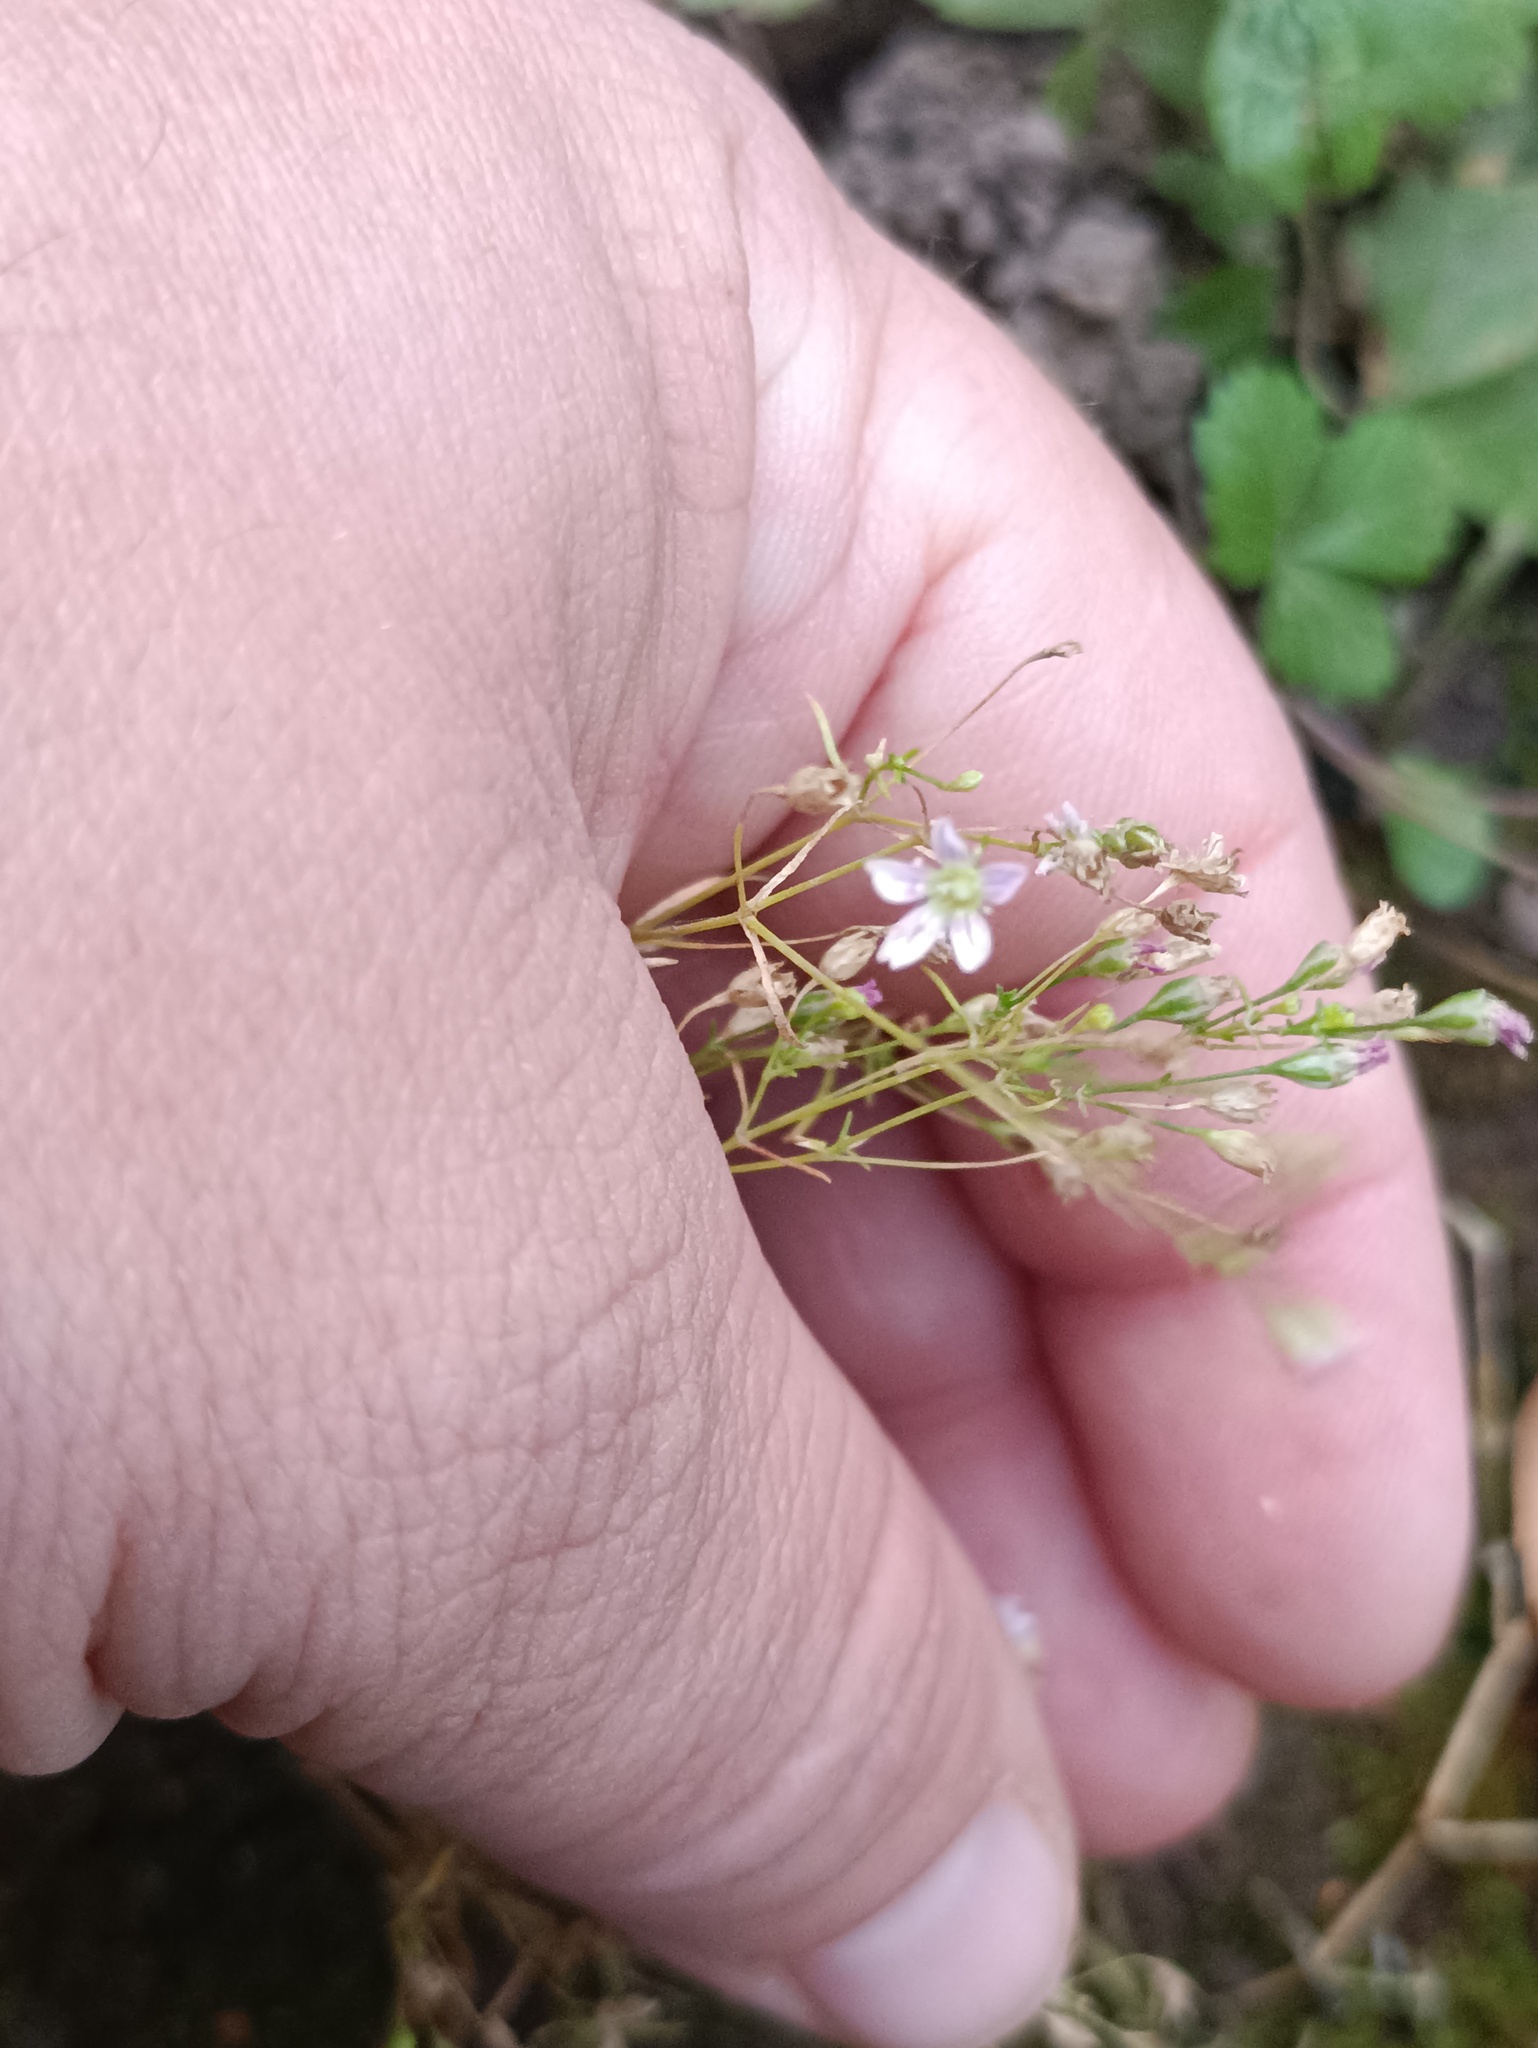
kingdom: Plantae
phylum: Tracheophyta
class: Magnoliopsida
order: Caryophyllales
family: Caryophyllaceae
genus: Psammophiliella
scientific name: Psammophiliella muralis
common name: Cushion baby's-breath
